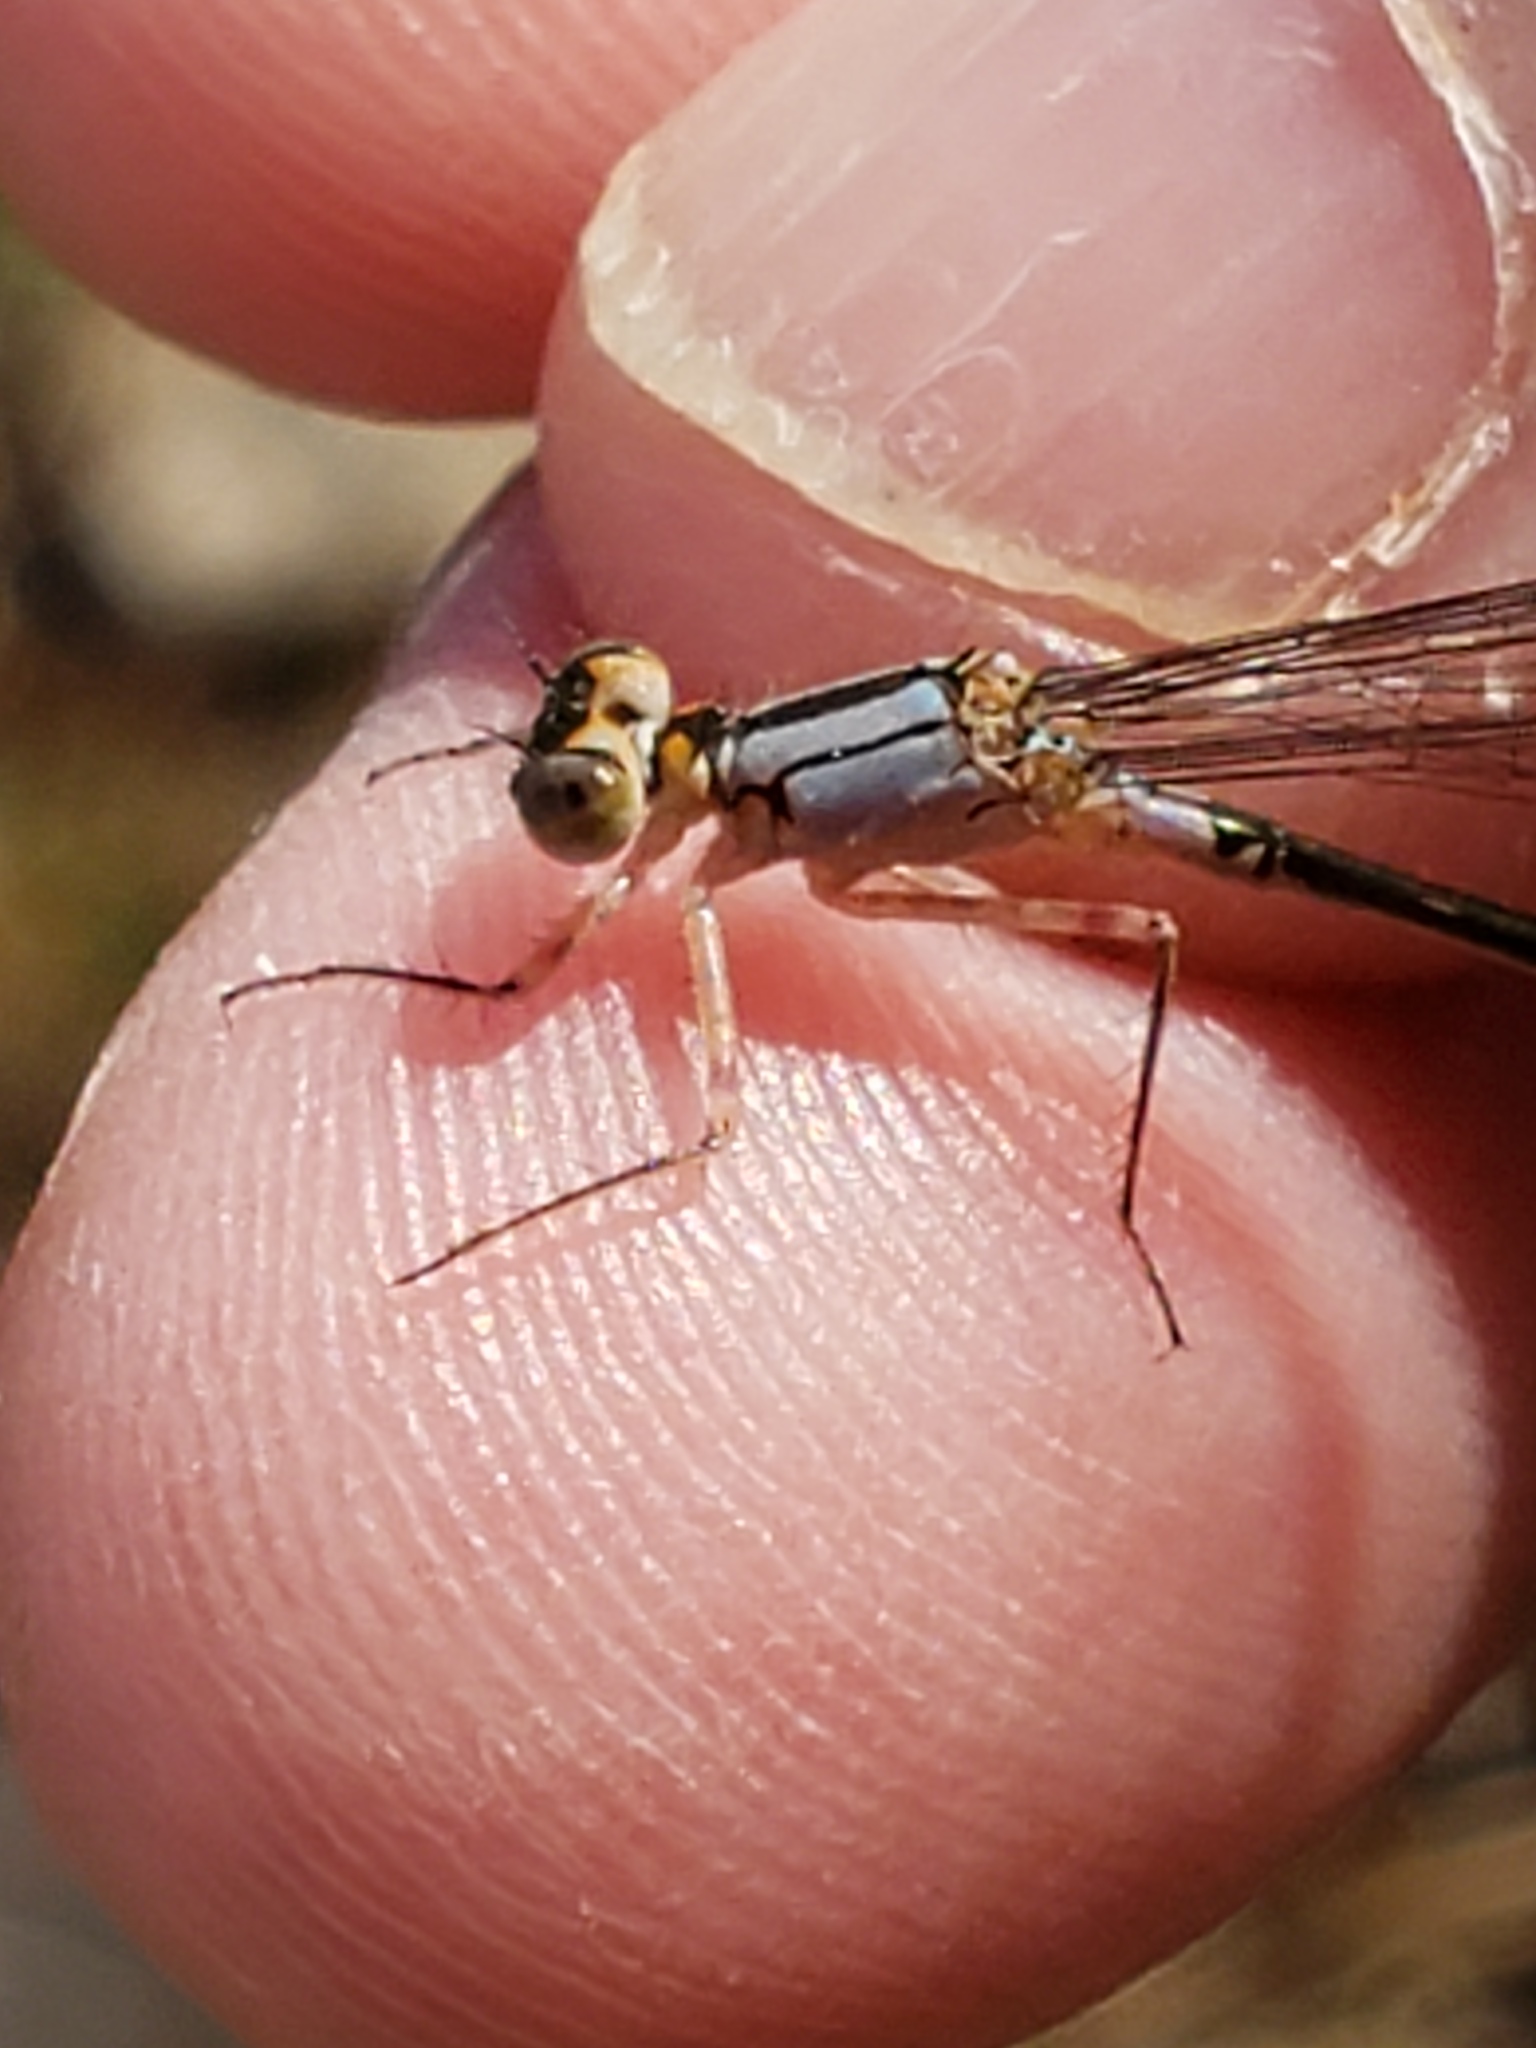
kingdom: Animalia
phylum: Arthropoda
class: Insecta
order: Odonata
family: Coenagrionidae
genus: Ischnura
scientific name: Ischnura cervula
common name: Pacific forktail
